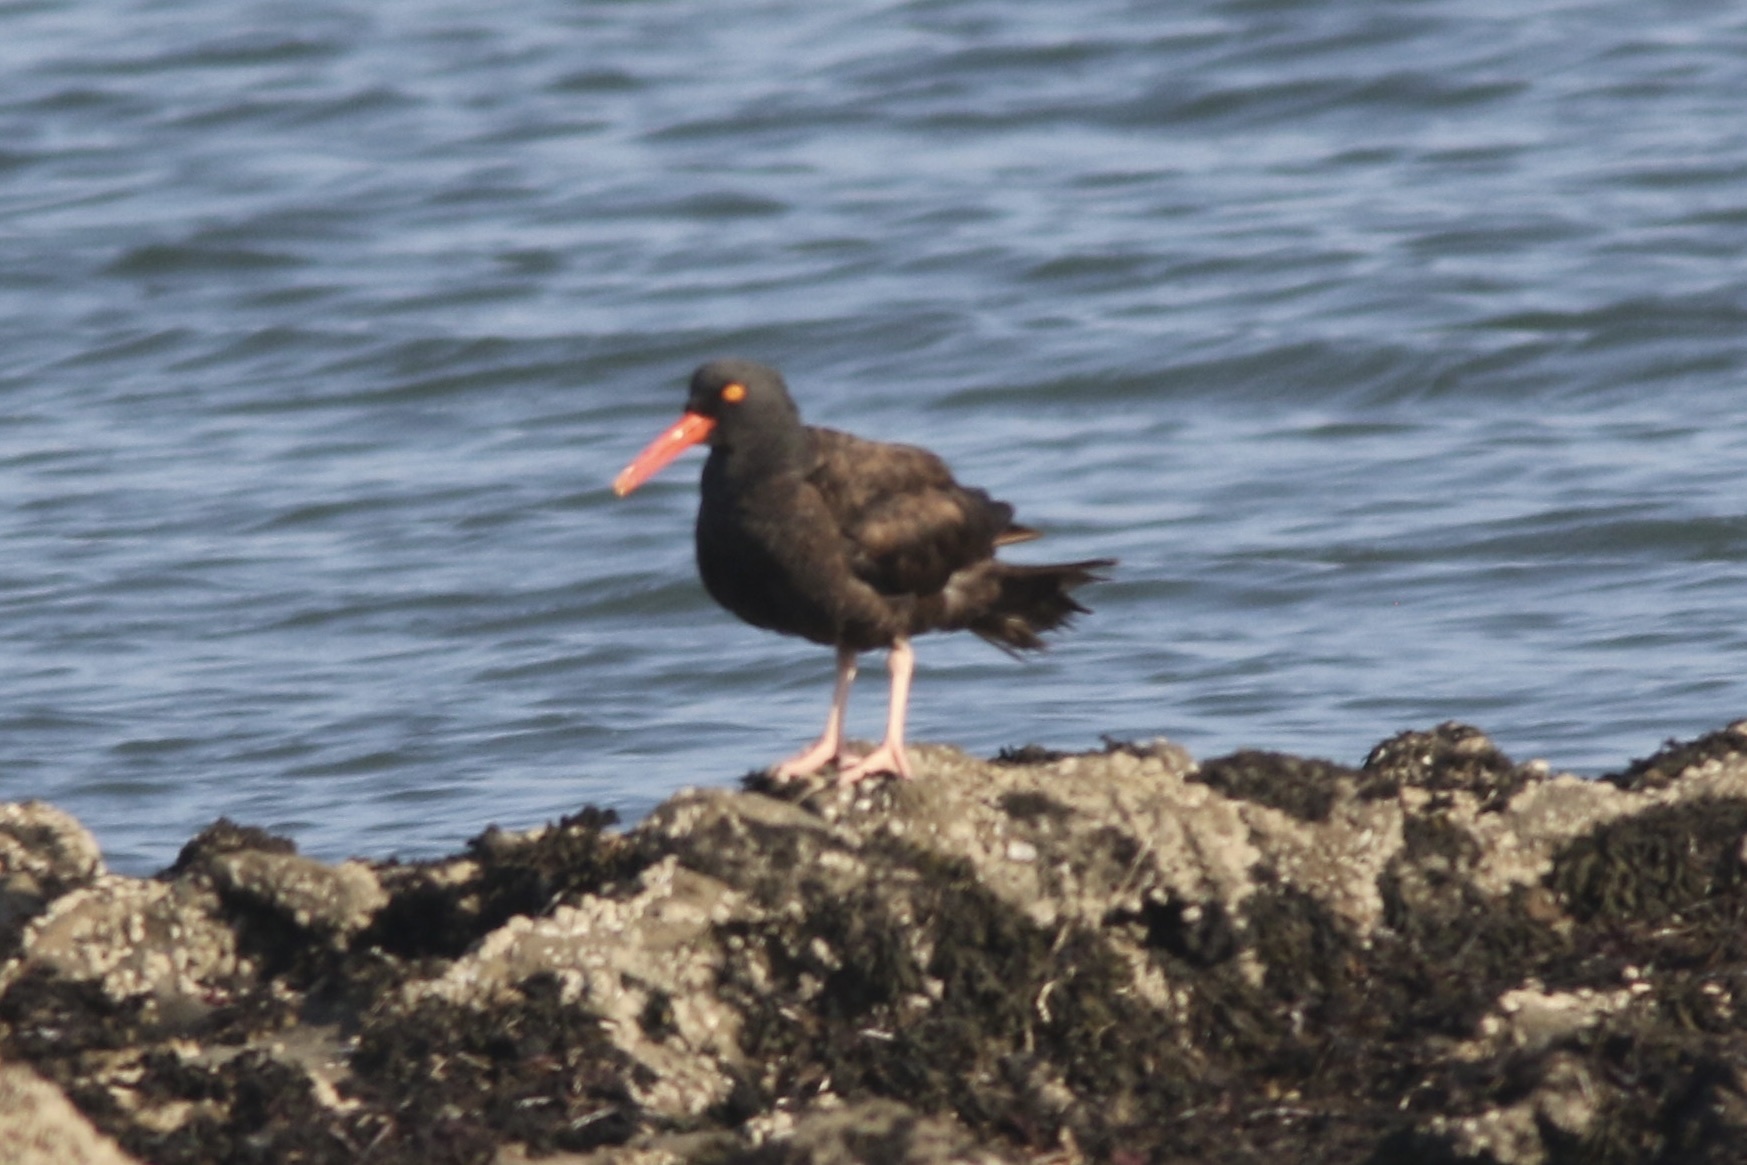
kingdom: Animalia
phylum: Chordata
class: Aves
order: Charadriiformes
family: Haematopodidae
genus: Haematopus
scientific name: Haematopus bachmani
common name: Black oystercatcher
